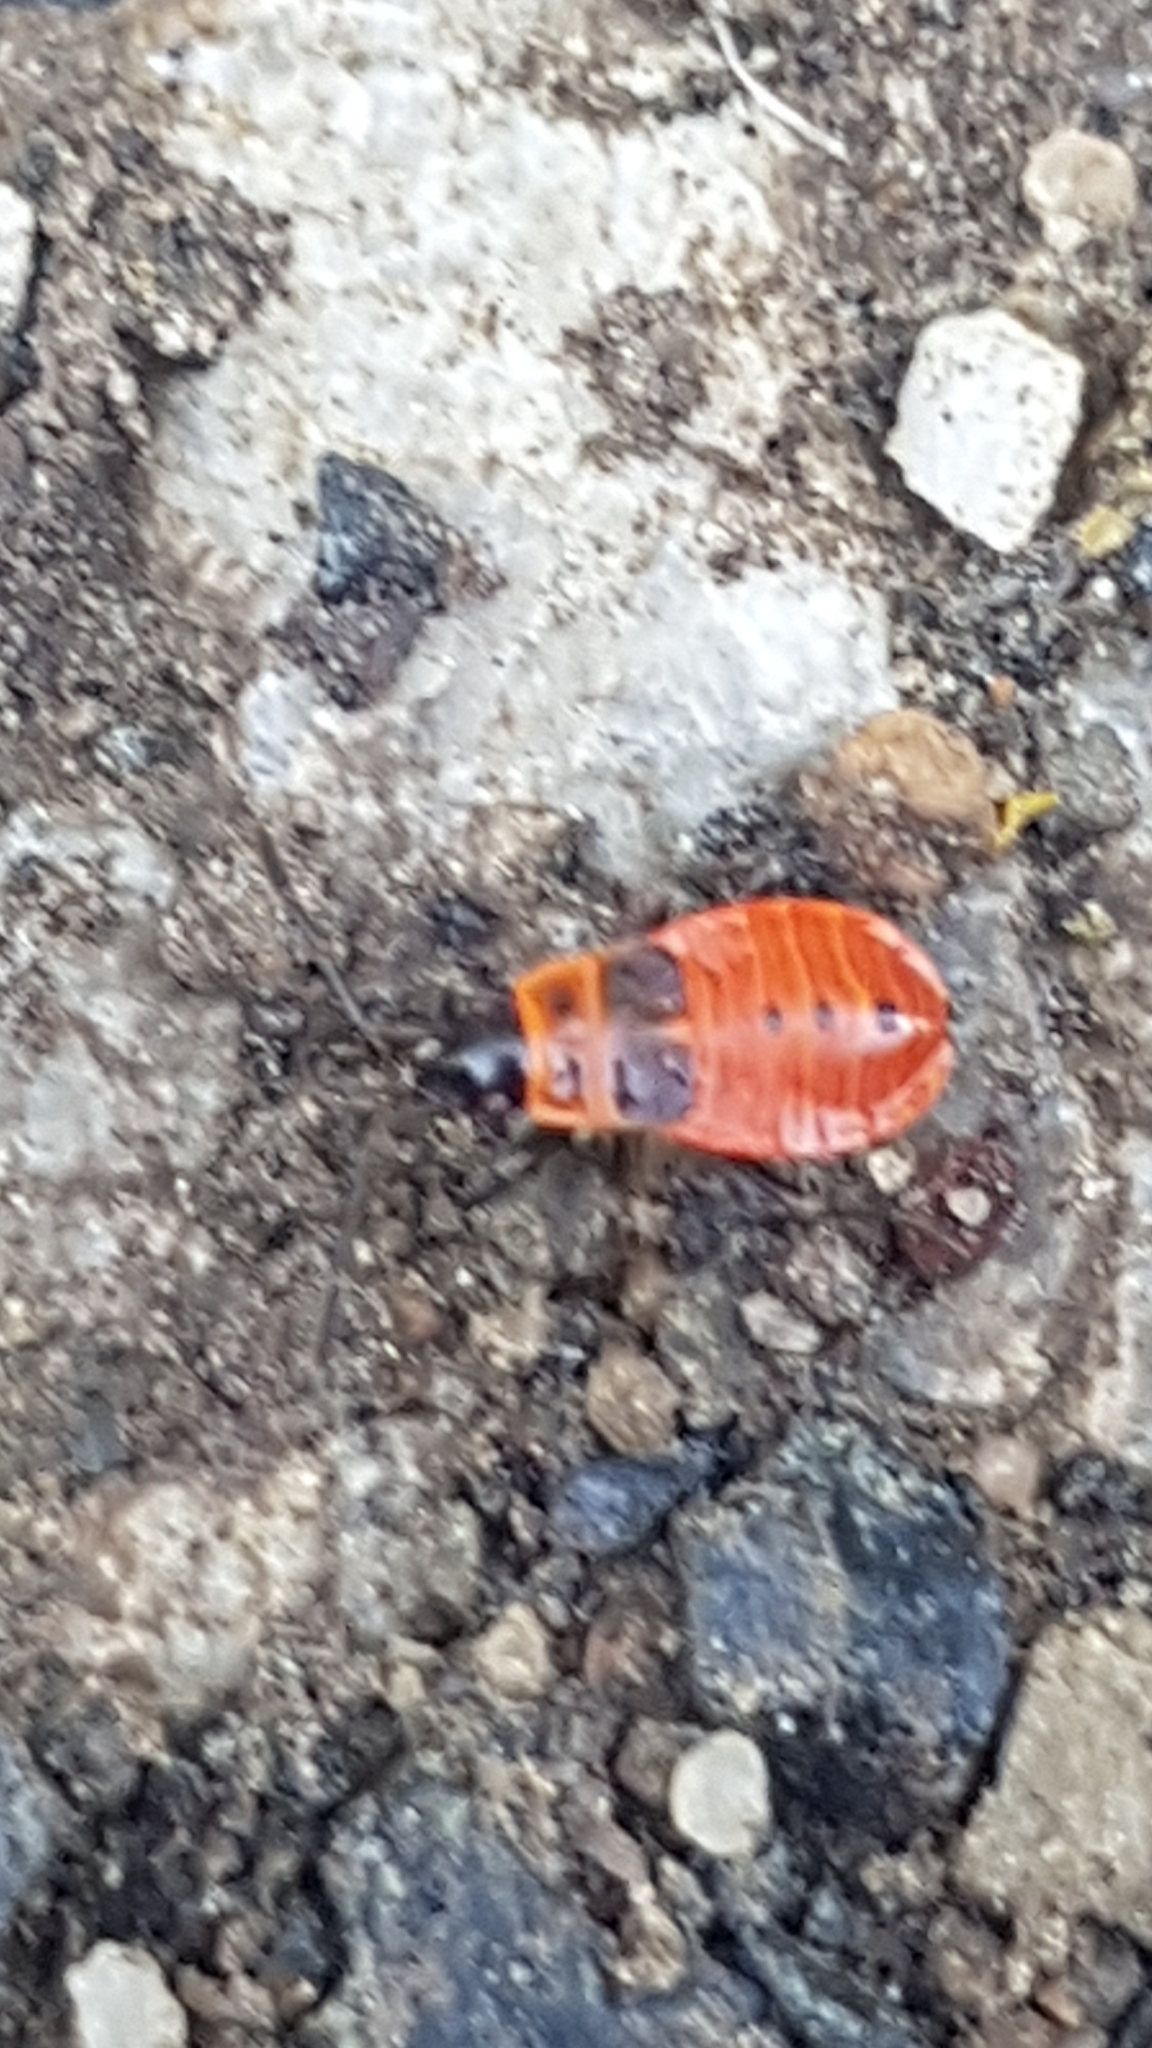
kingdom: Animalia
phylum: Arthropoda
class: Insecta
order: Hemiptera
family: Pyrrhocoridae
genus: Pyrrhocoris
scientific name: Pyrrhocoris apterus
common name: Firebug
